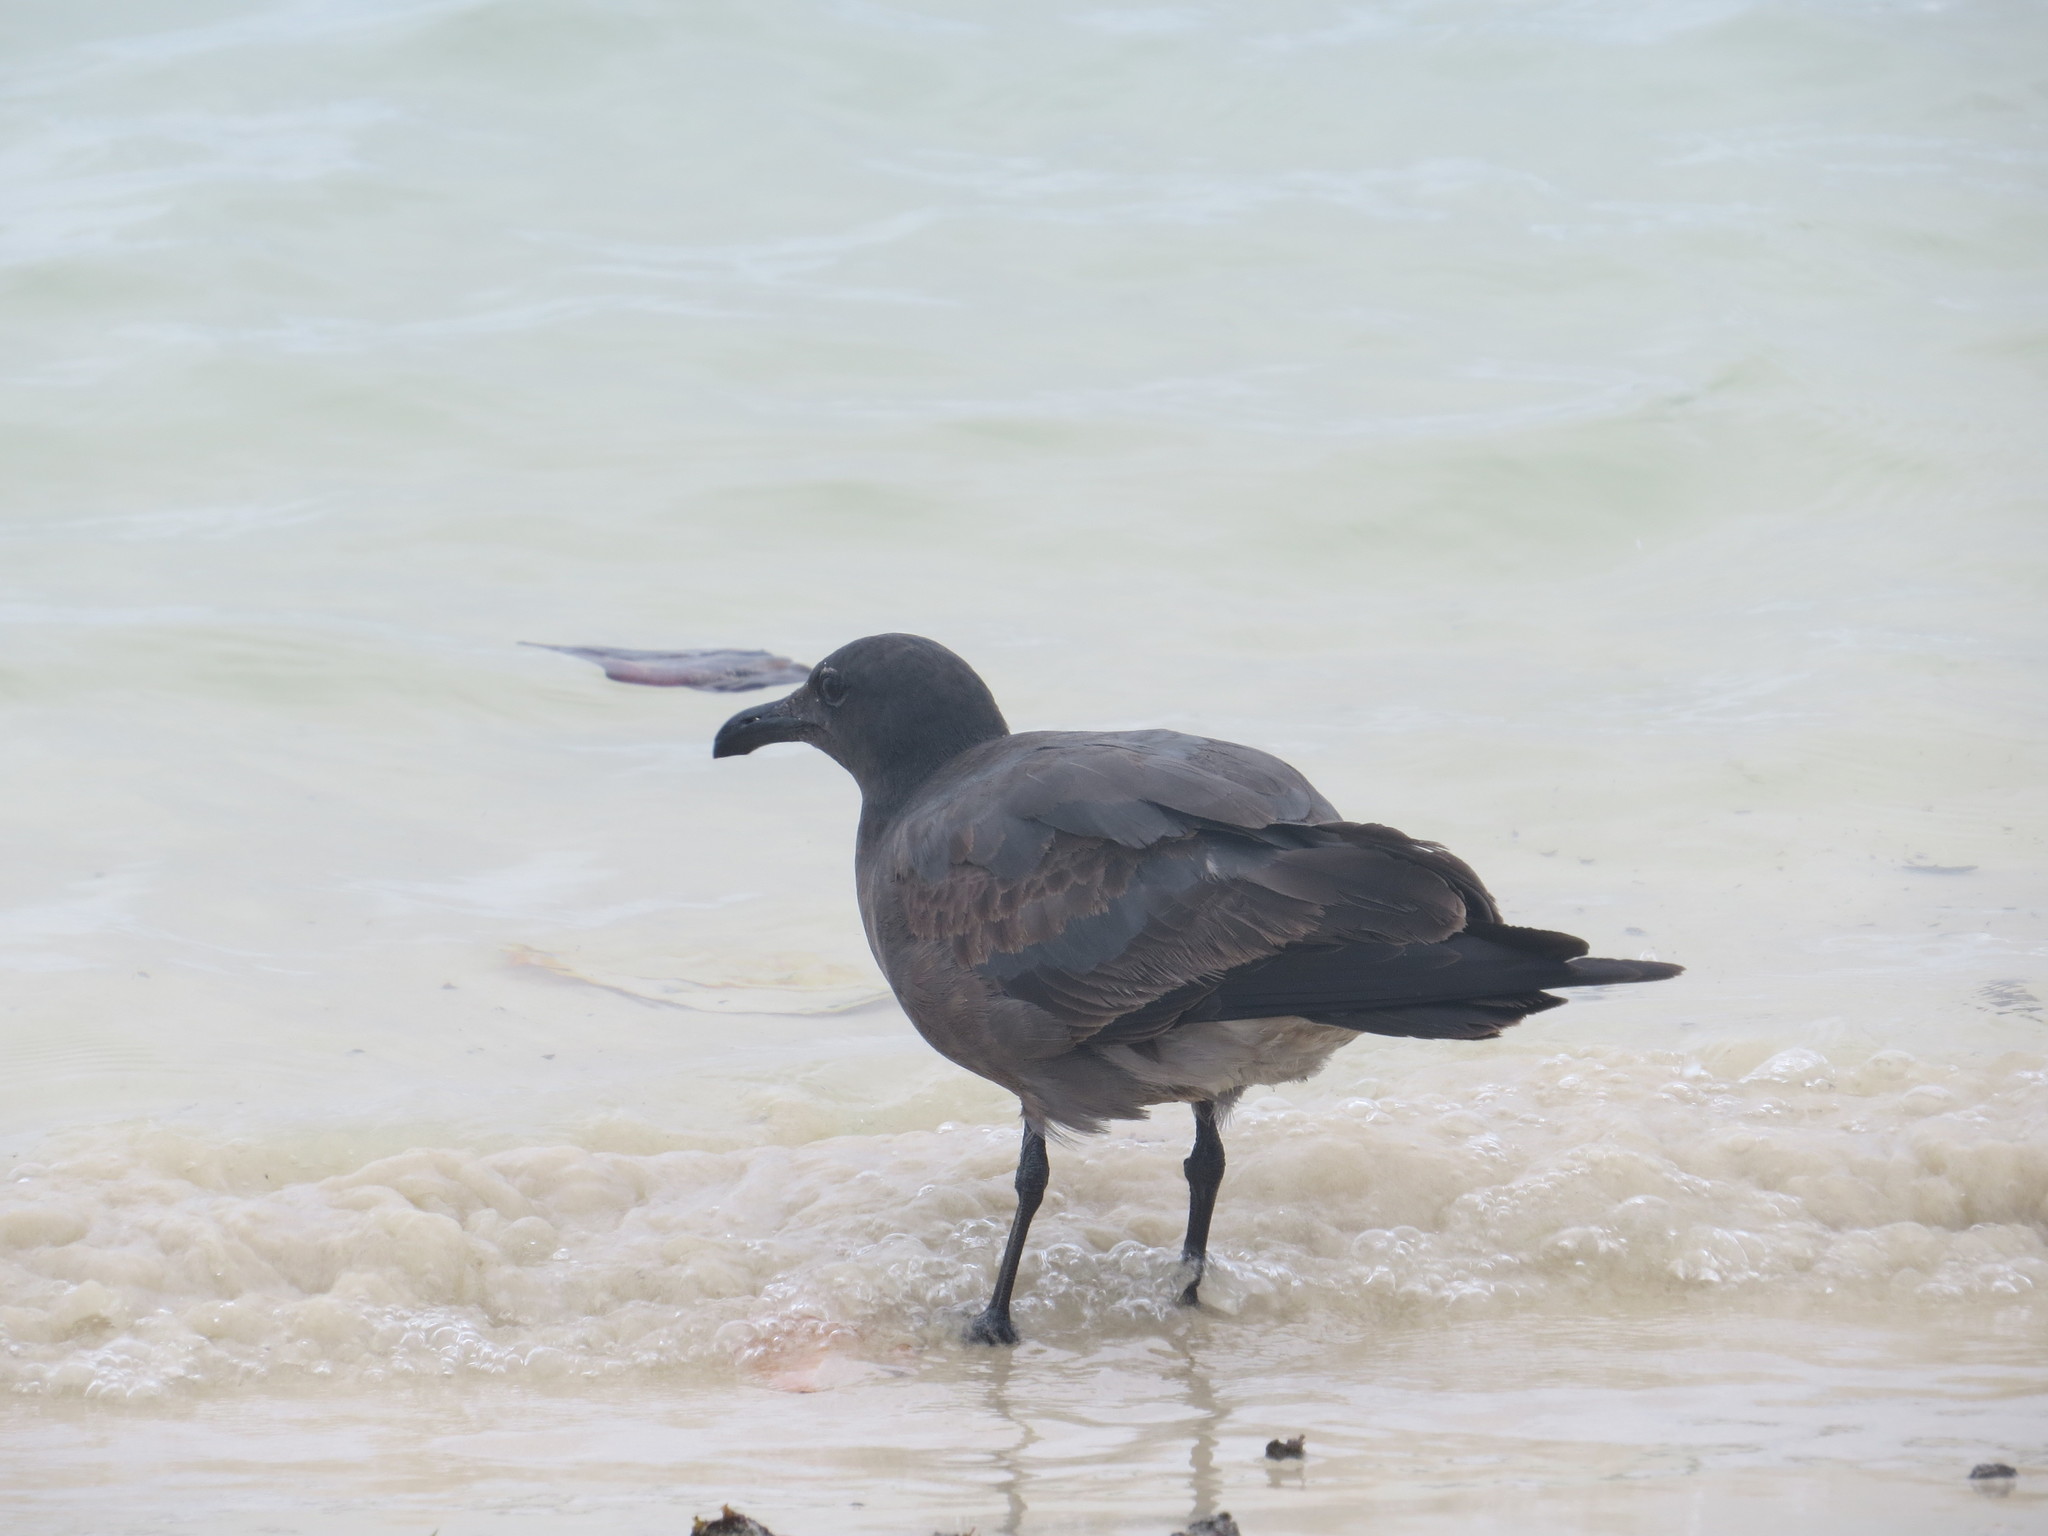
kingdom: Animalia
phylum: Chordata
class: Aves
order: Charadriiformes
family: Laridae
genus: Leucophaeus
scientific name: Leucophaeus fuliginosus
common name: Lava gull
